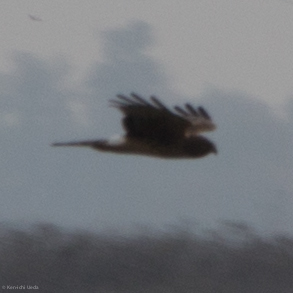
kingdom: Animalia
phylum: Chordata
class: Aves
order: Accipitriformes
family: Accipitridae
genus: Circus
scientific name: Circus cyaneus
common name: Hen harrier
